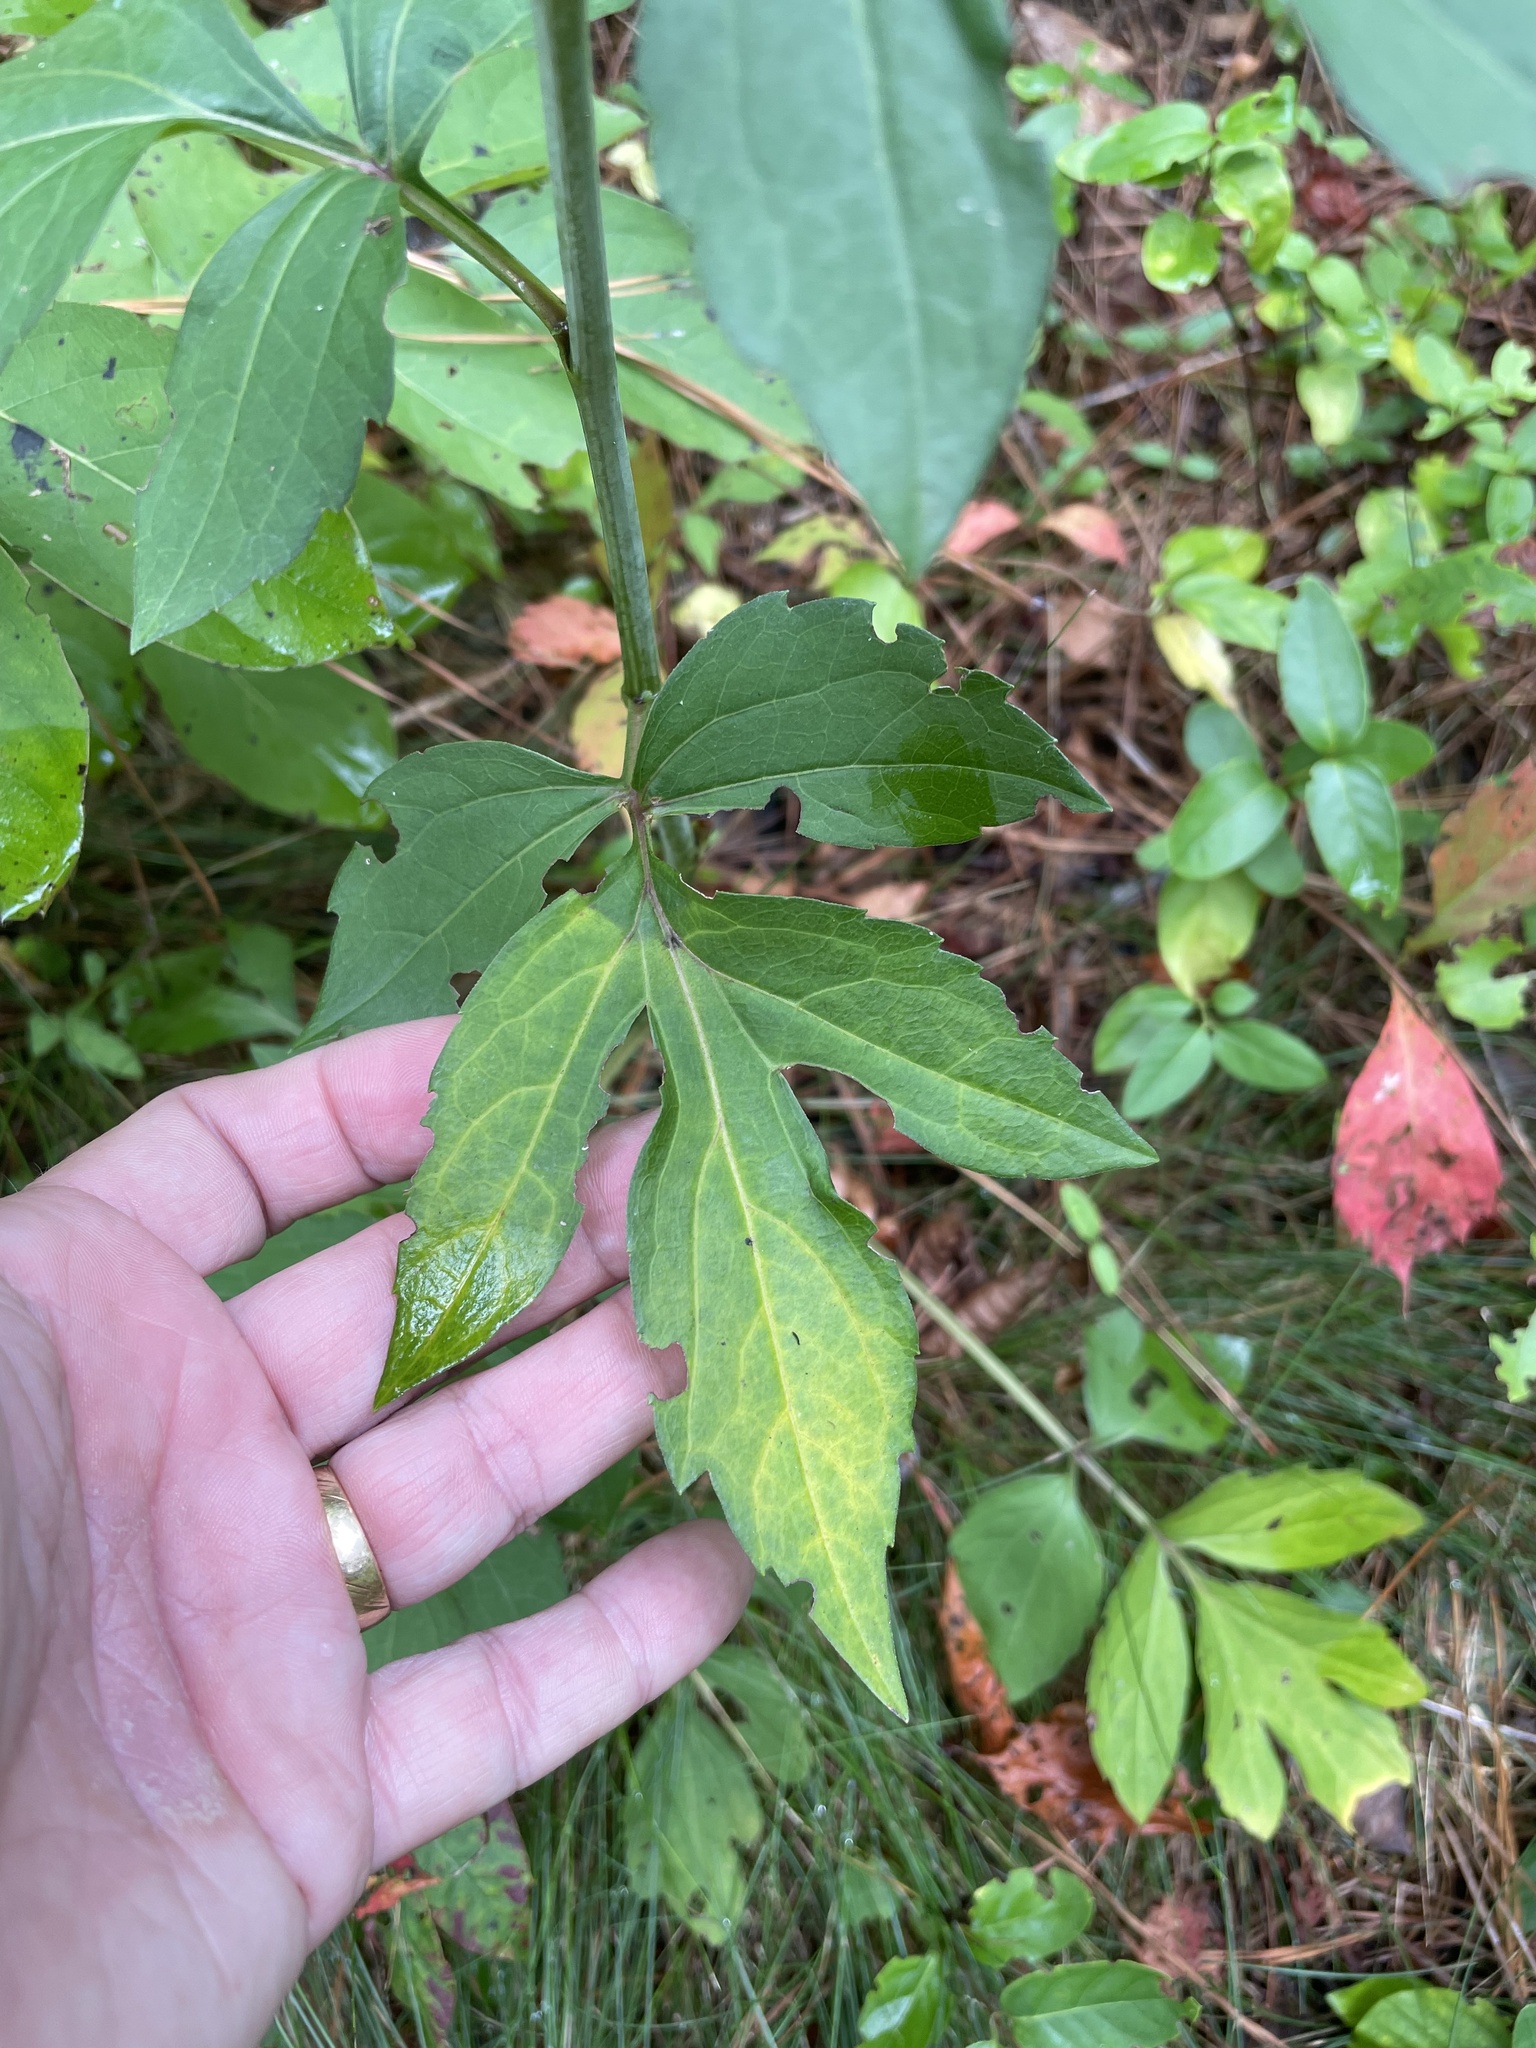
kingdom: Plantae
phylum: Tracheophyta
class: Magnoliopsida
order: Asterales
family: Asteraceae
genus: Rudbeckia
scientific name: Rudbeckia laciniata
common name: Coneflower
